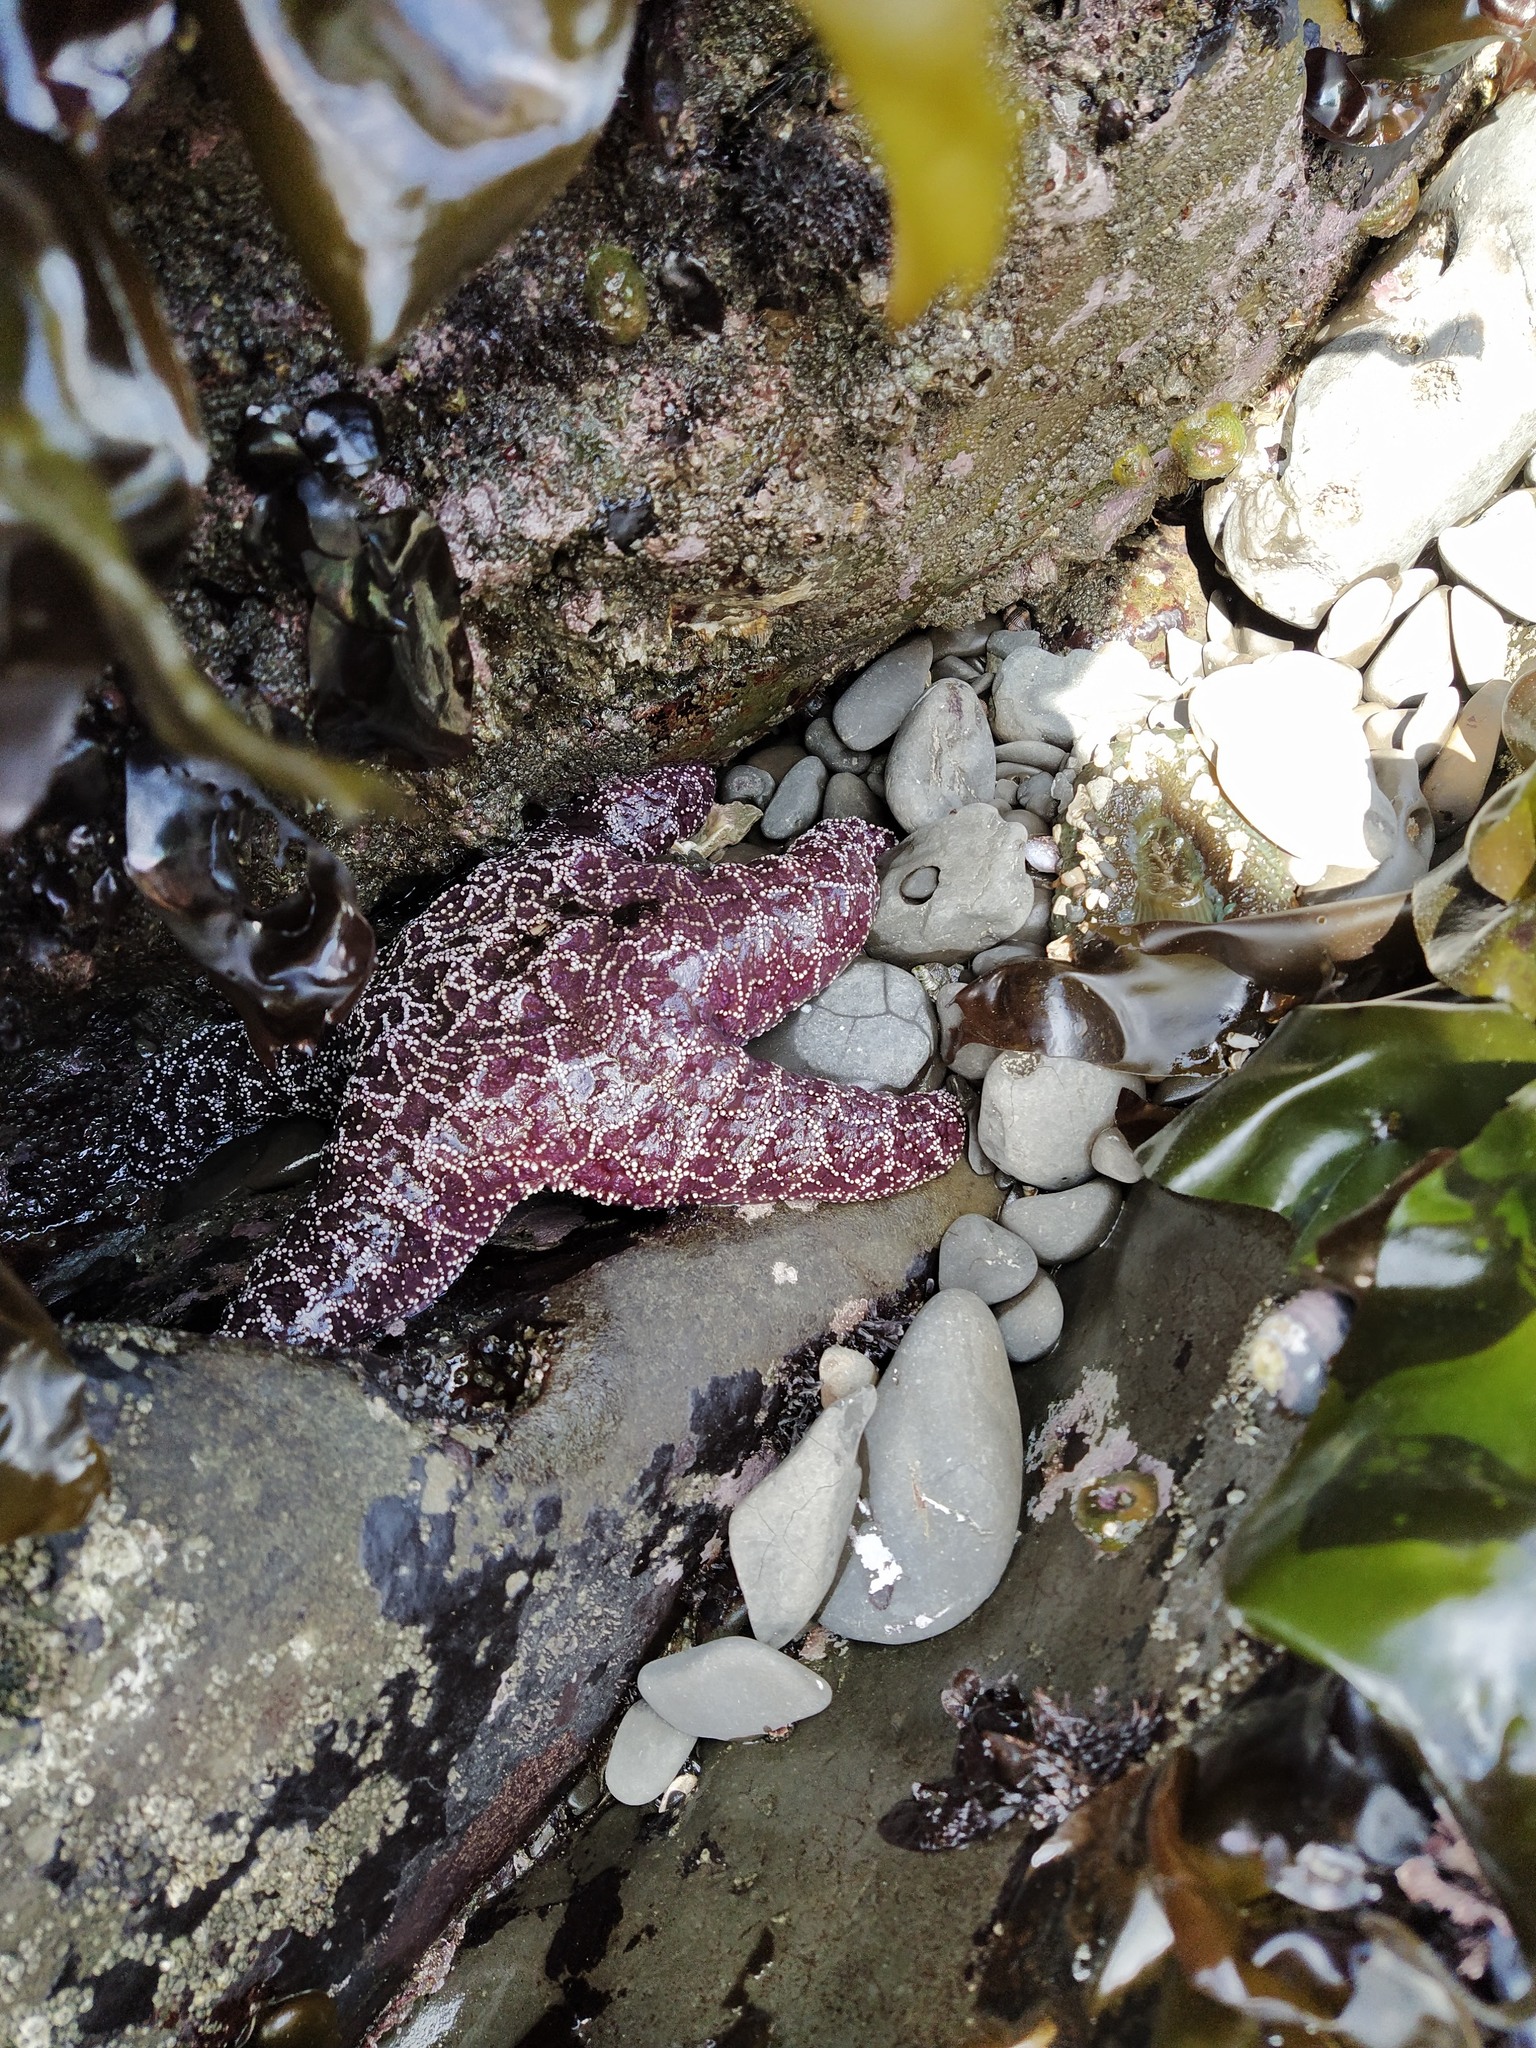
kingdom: Animalia
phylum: Echinodermata
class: Asteroidea
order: Forcipulatida
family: Asteriidae
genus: Pisaster
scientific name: Pisaster ochraceus
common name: Ochre stars
